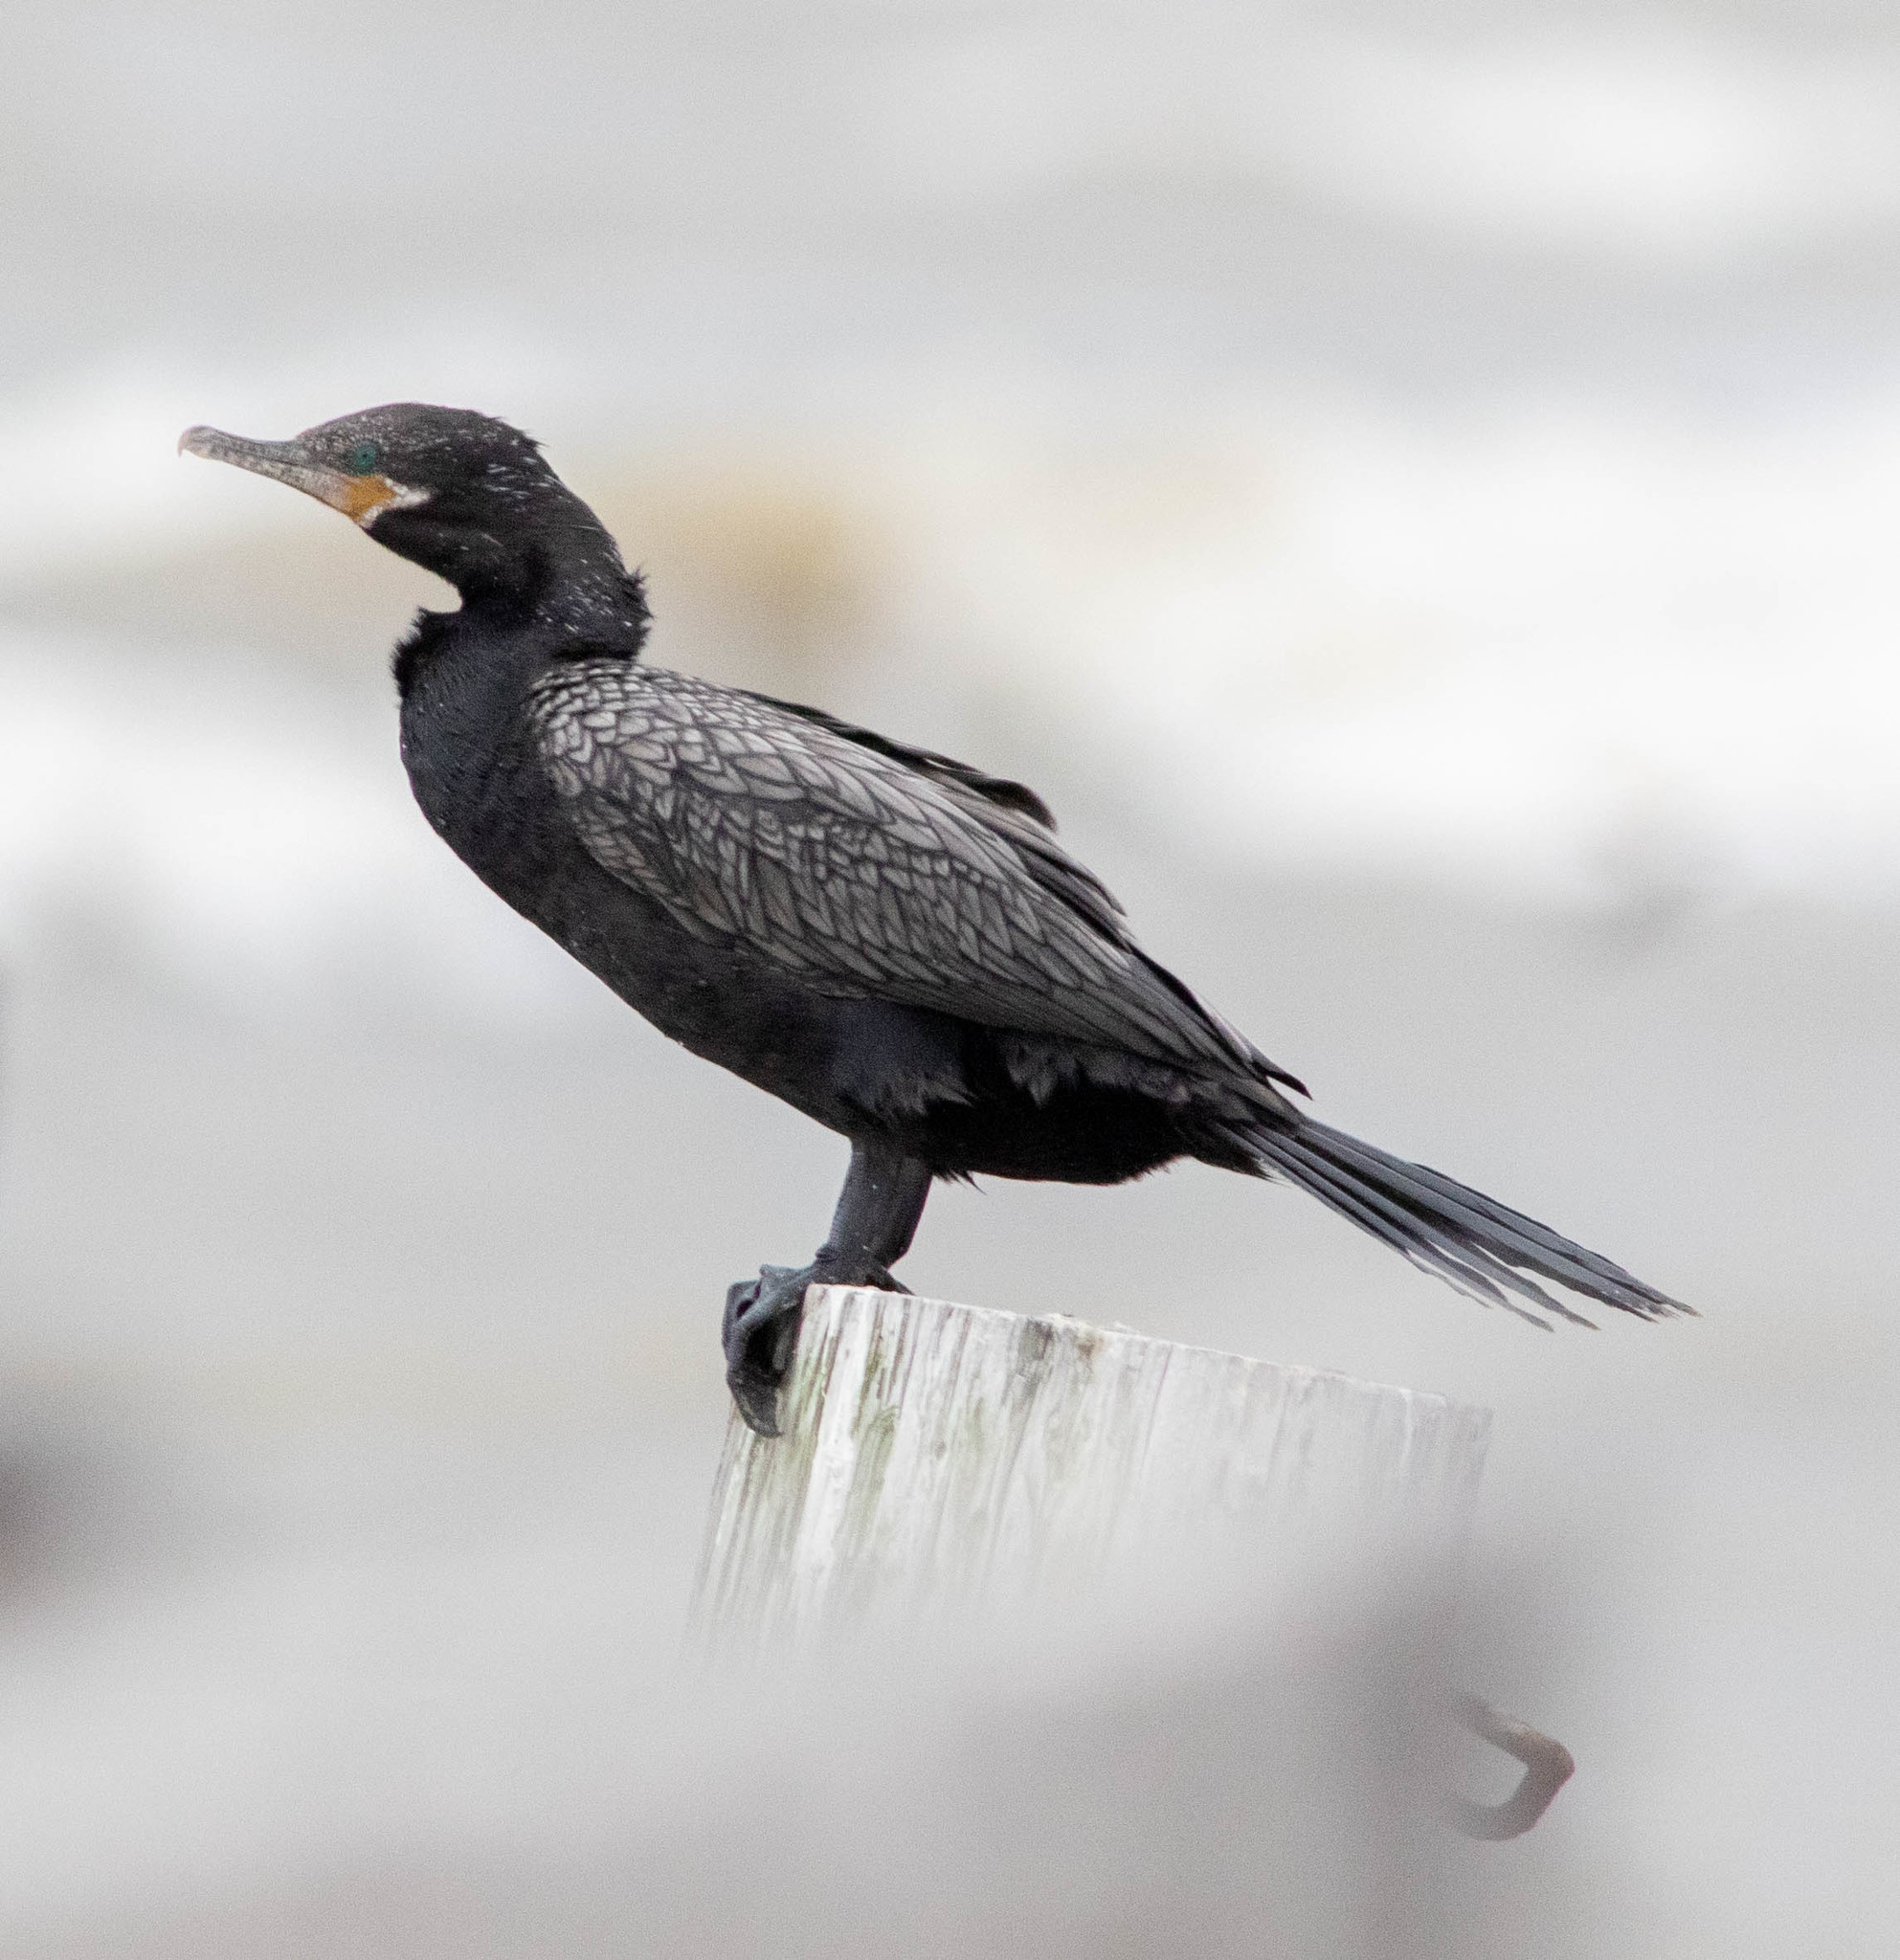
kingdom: Animalia
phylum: Chordata
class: Aves
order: Suliformes
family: Phalacrocoracidae
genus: Phalacrocorax
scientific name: Phalacrocorax brasilianus
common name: Neotropic cormorant
